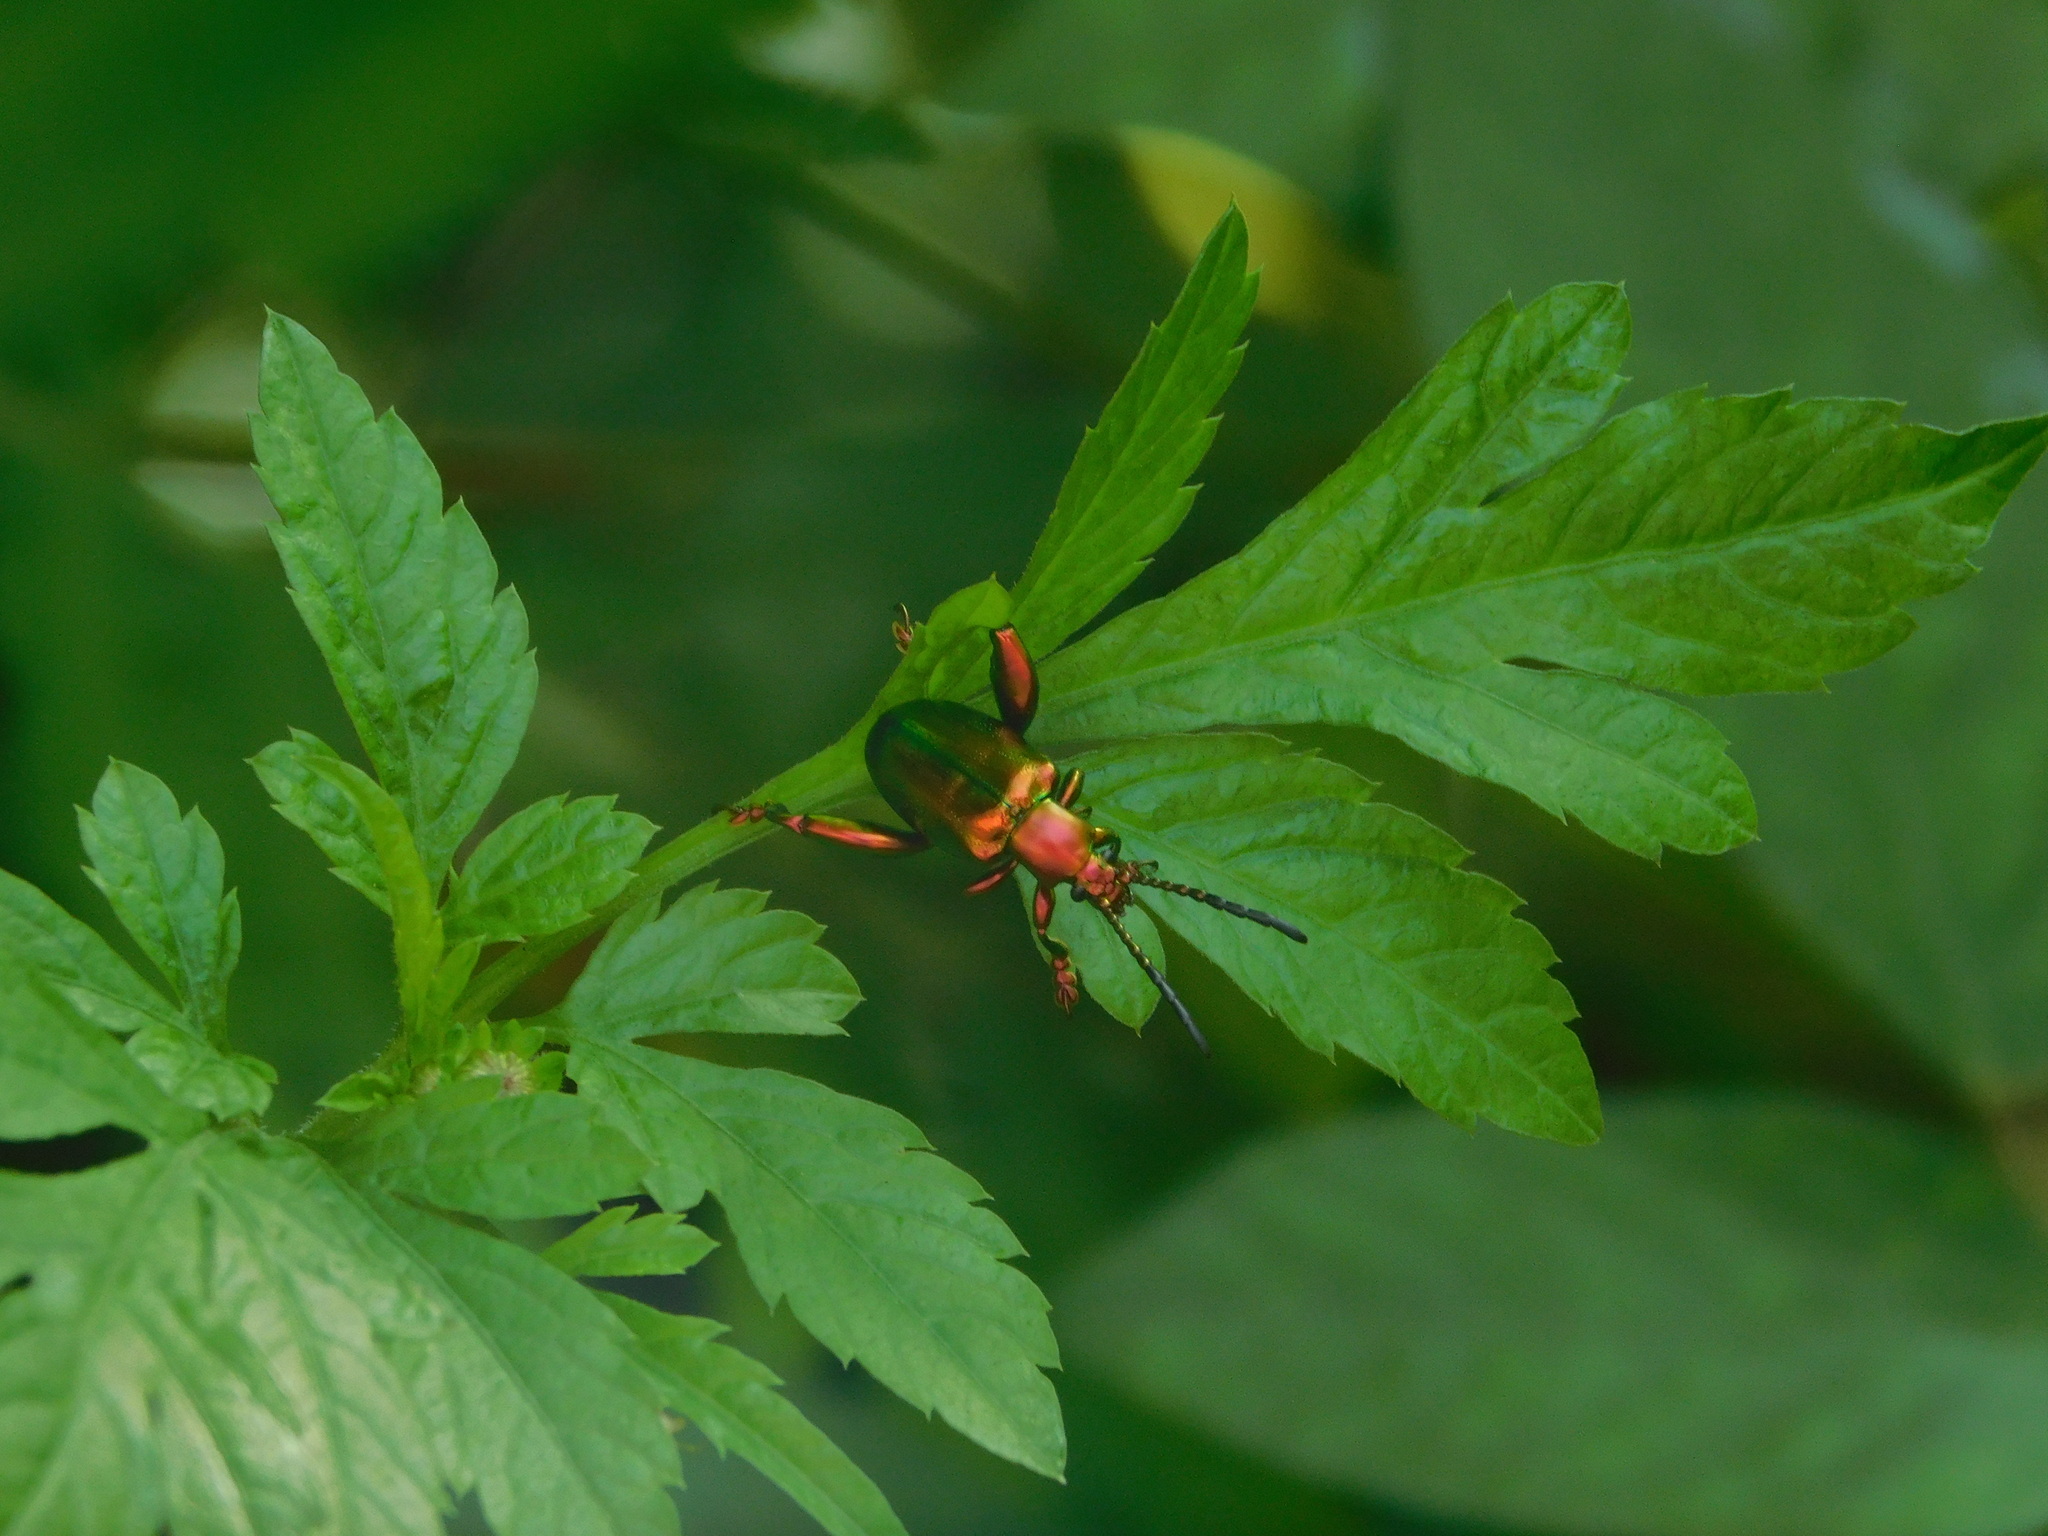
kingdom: Animalia
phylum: Arthropoda
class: Insecta
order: Coleoptera
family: Chrysomelidae
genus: Sagra
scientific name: Sagra femorata
